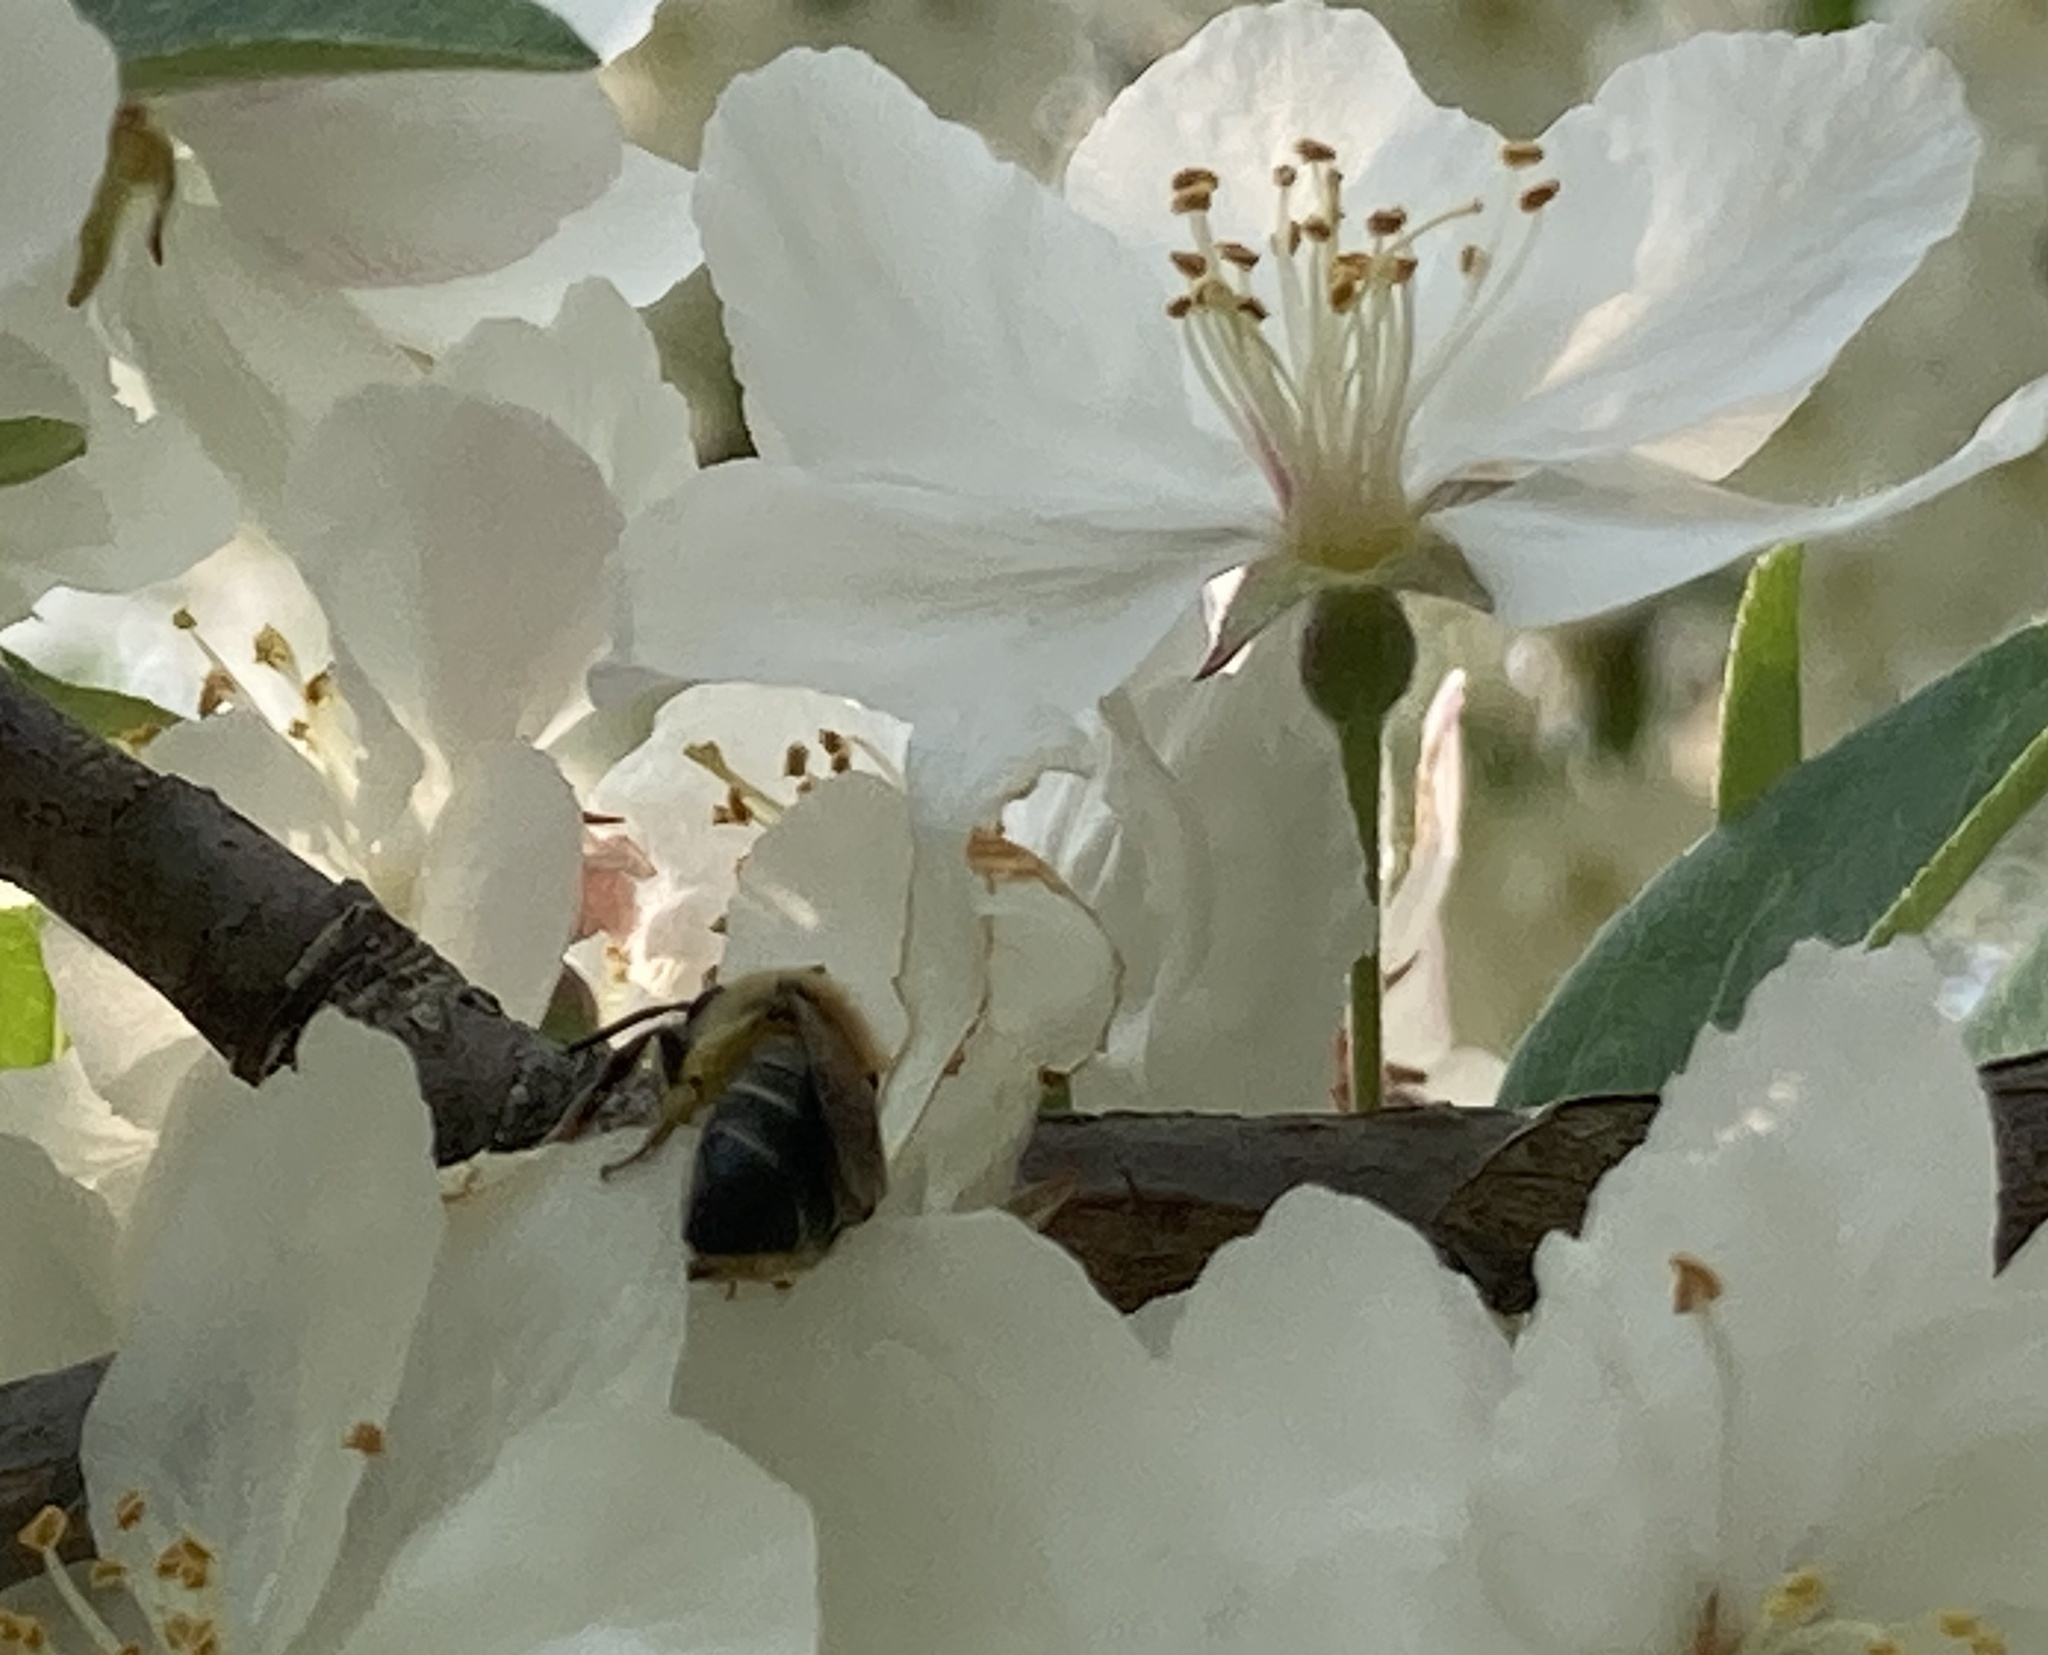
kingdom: Animalia
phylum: Arthropoda
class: Insecta
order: Hymenoptera
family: Colletidae
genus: Colletes
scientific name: Colletes inaequalis
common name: Unequal cellophane bee
